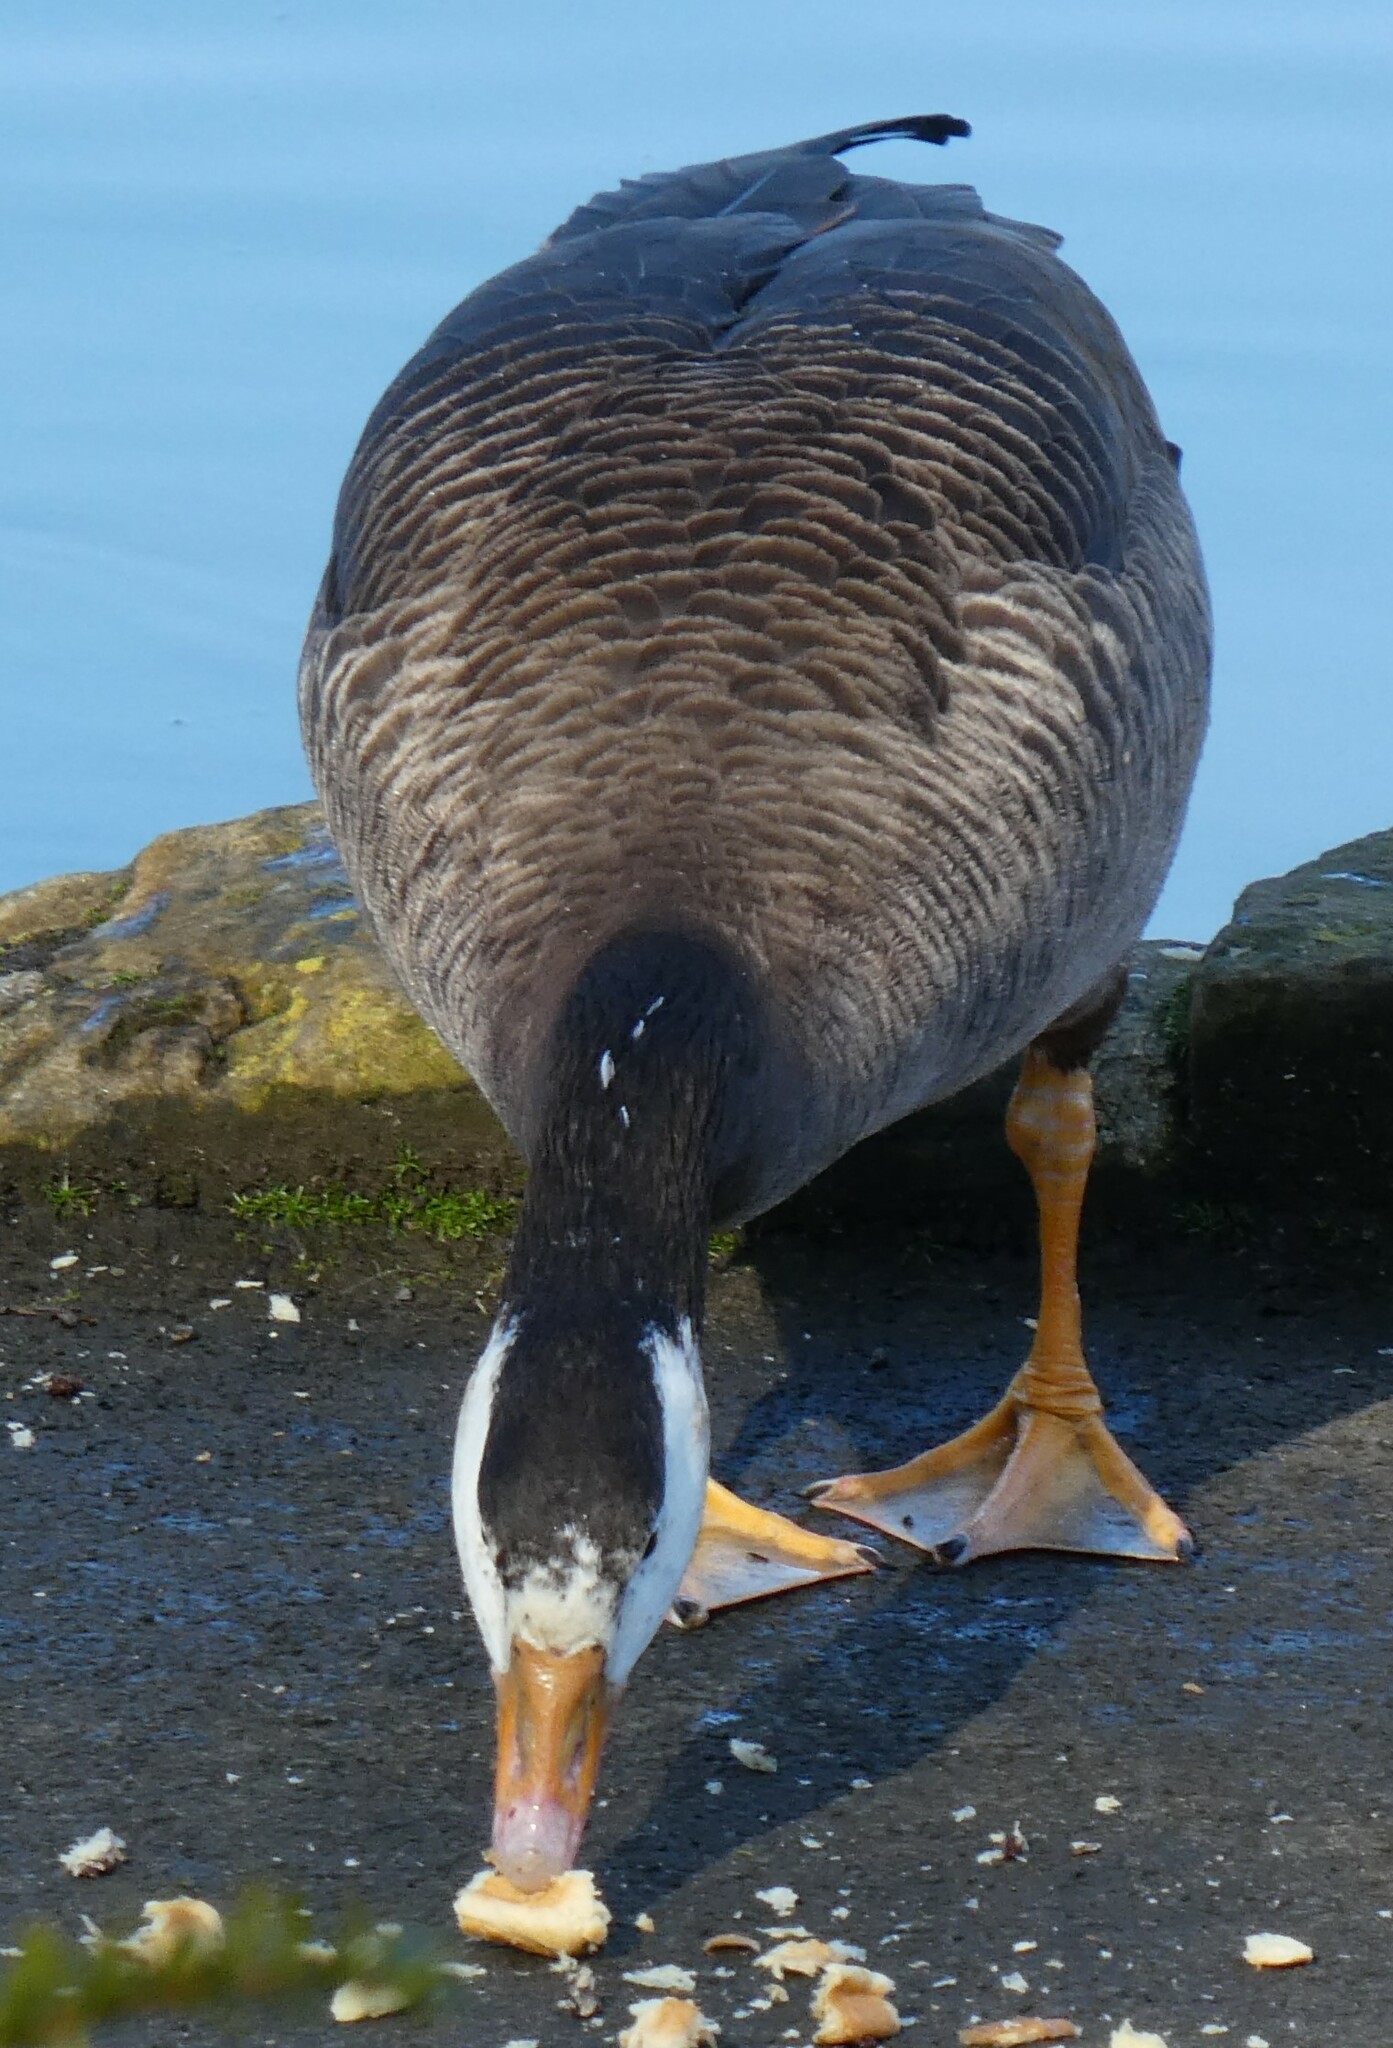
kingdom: Animalia
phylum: Chordata
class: Aves
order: Anseriformes
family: Anatidae
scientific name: Anatidae
